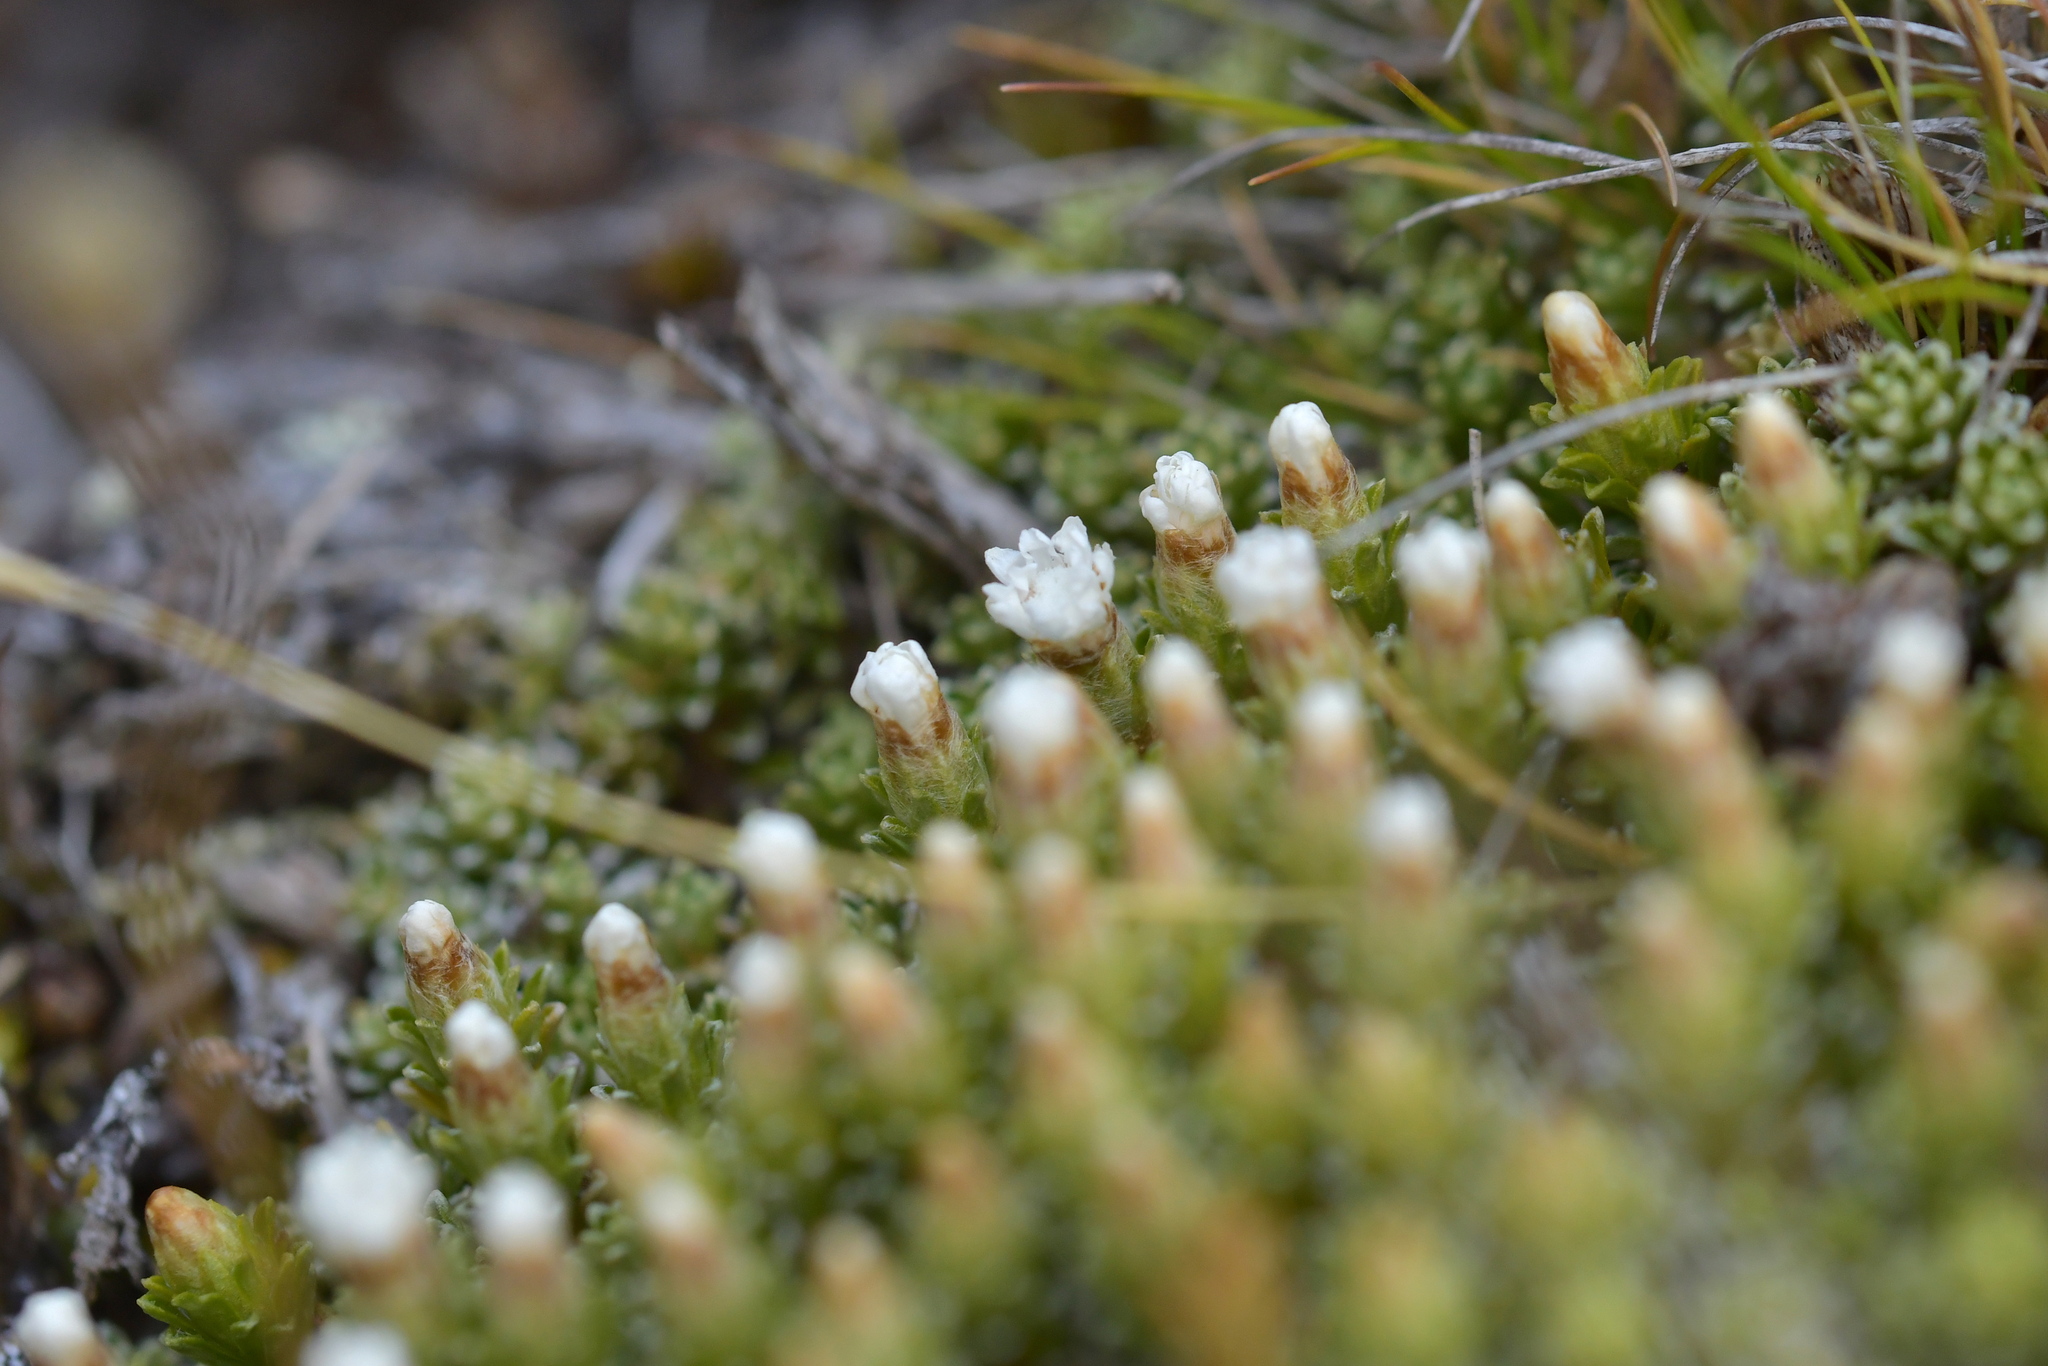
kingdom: Plantae
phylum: Tracheophyta
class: Magnoliopsida
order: Asterales
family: Asteraceae
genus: Raoulia
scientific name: Raoulia subsericea
